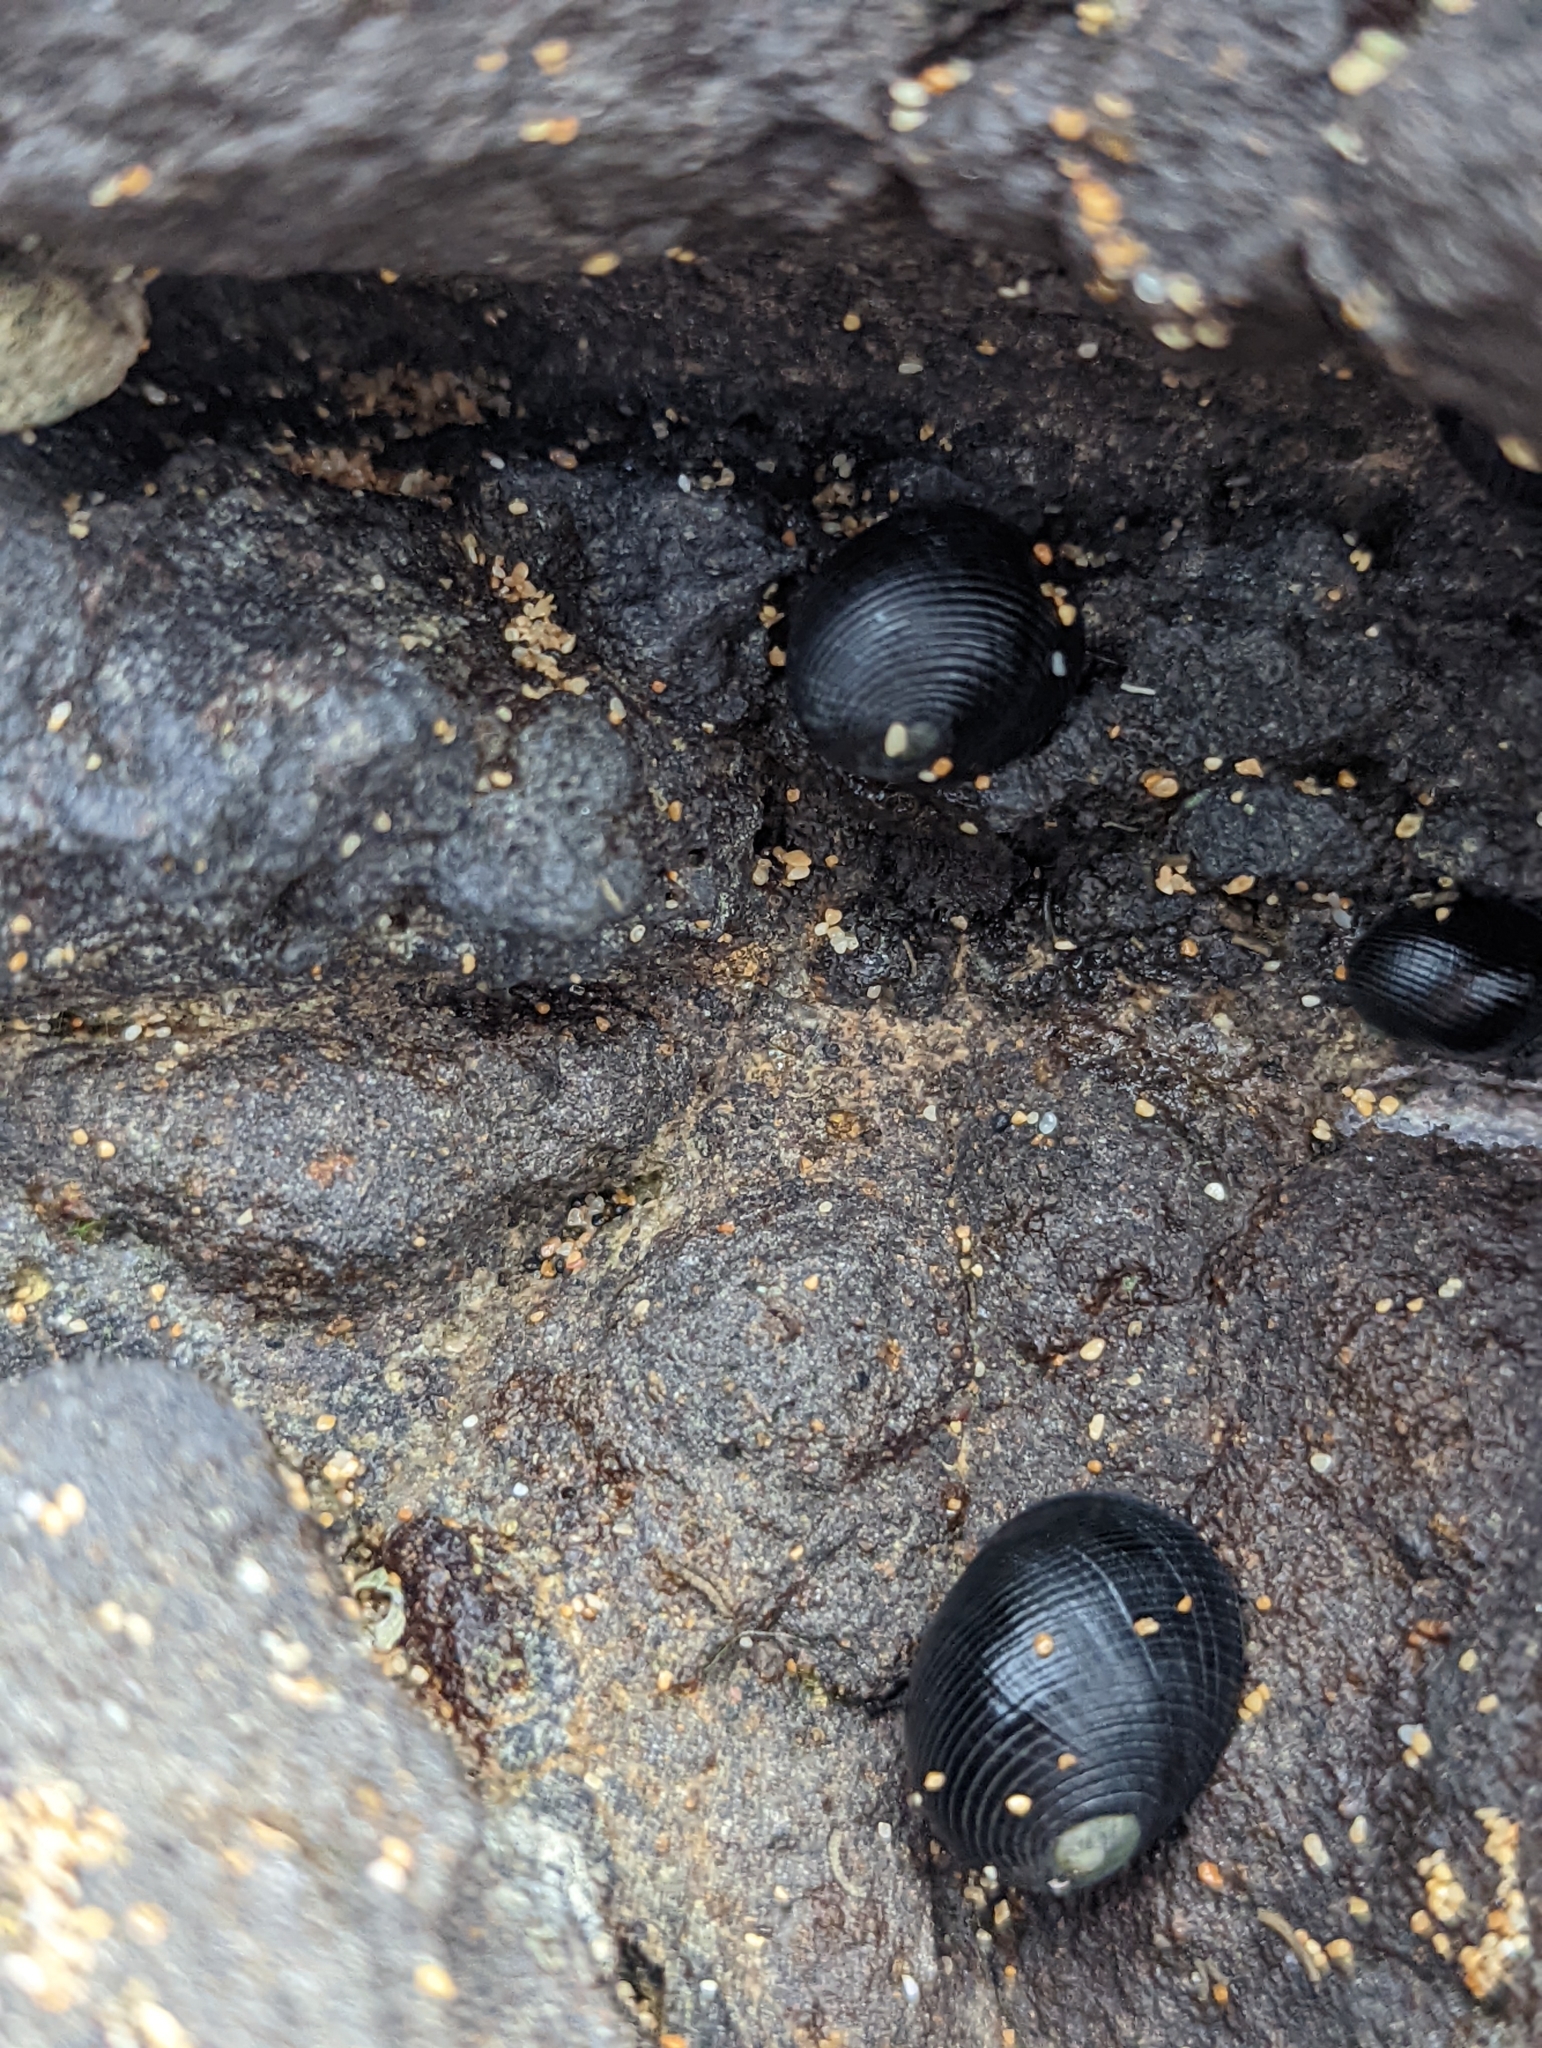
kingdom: Animalia
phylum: Mollusca
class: Gastropoda
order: Cycloneritida
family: Neritidae
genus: Nerita
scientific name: Nerita picea
